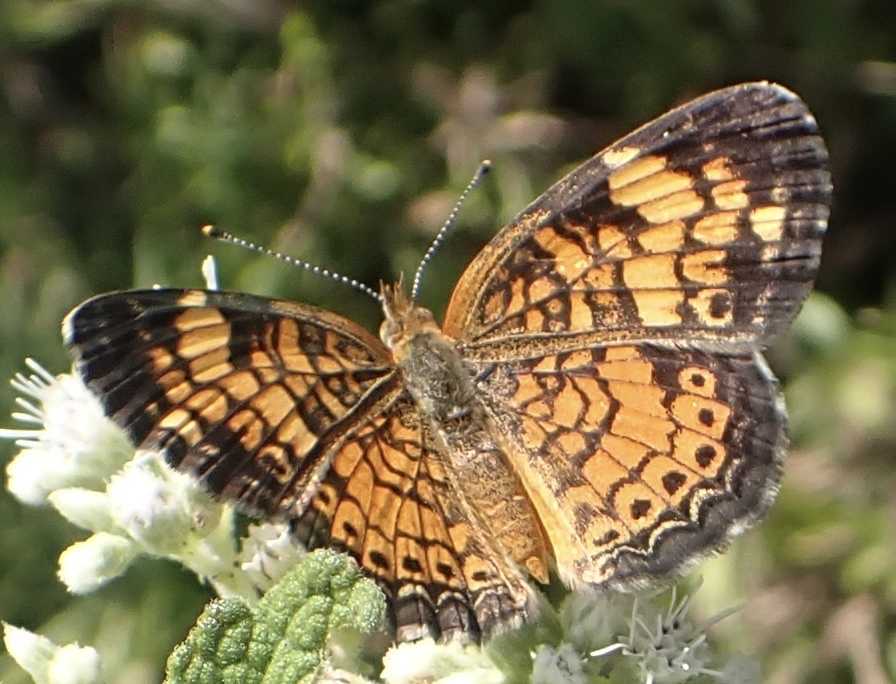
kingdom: Animalia
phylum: Arthropoda
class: Insecta
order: Lepidoptera
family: Nymphalidae
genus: Phyciodes
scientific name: Phyciodes tharos
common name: Pearl crescent
